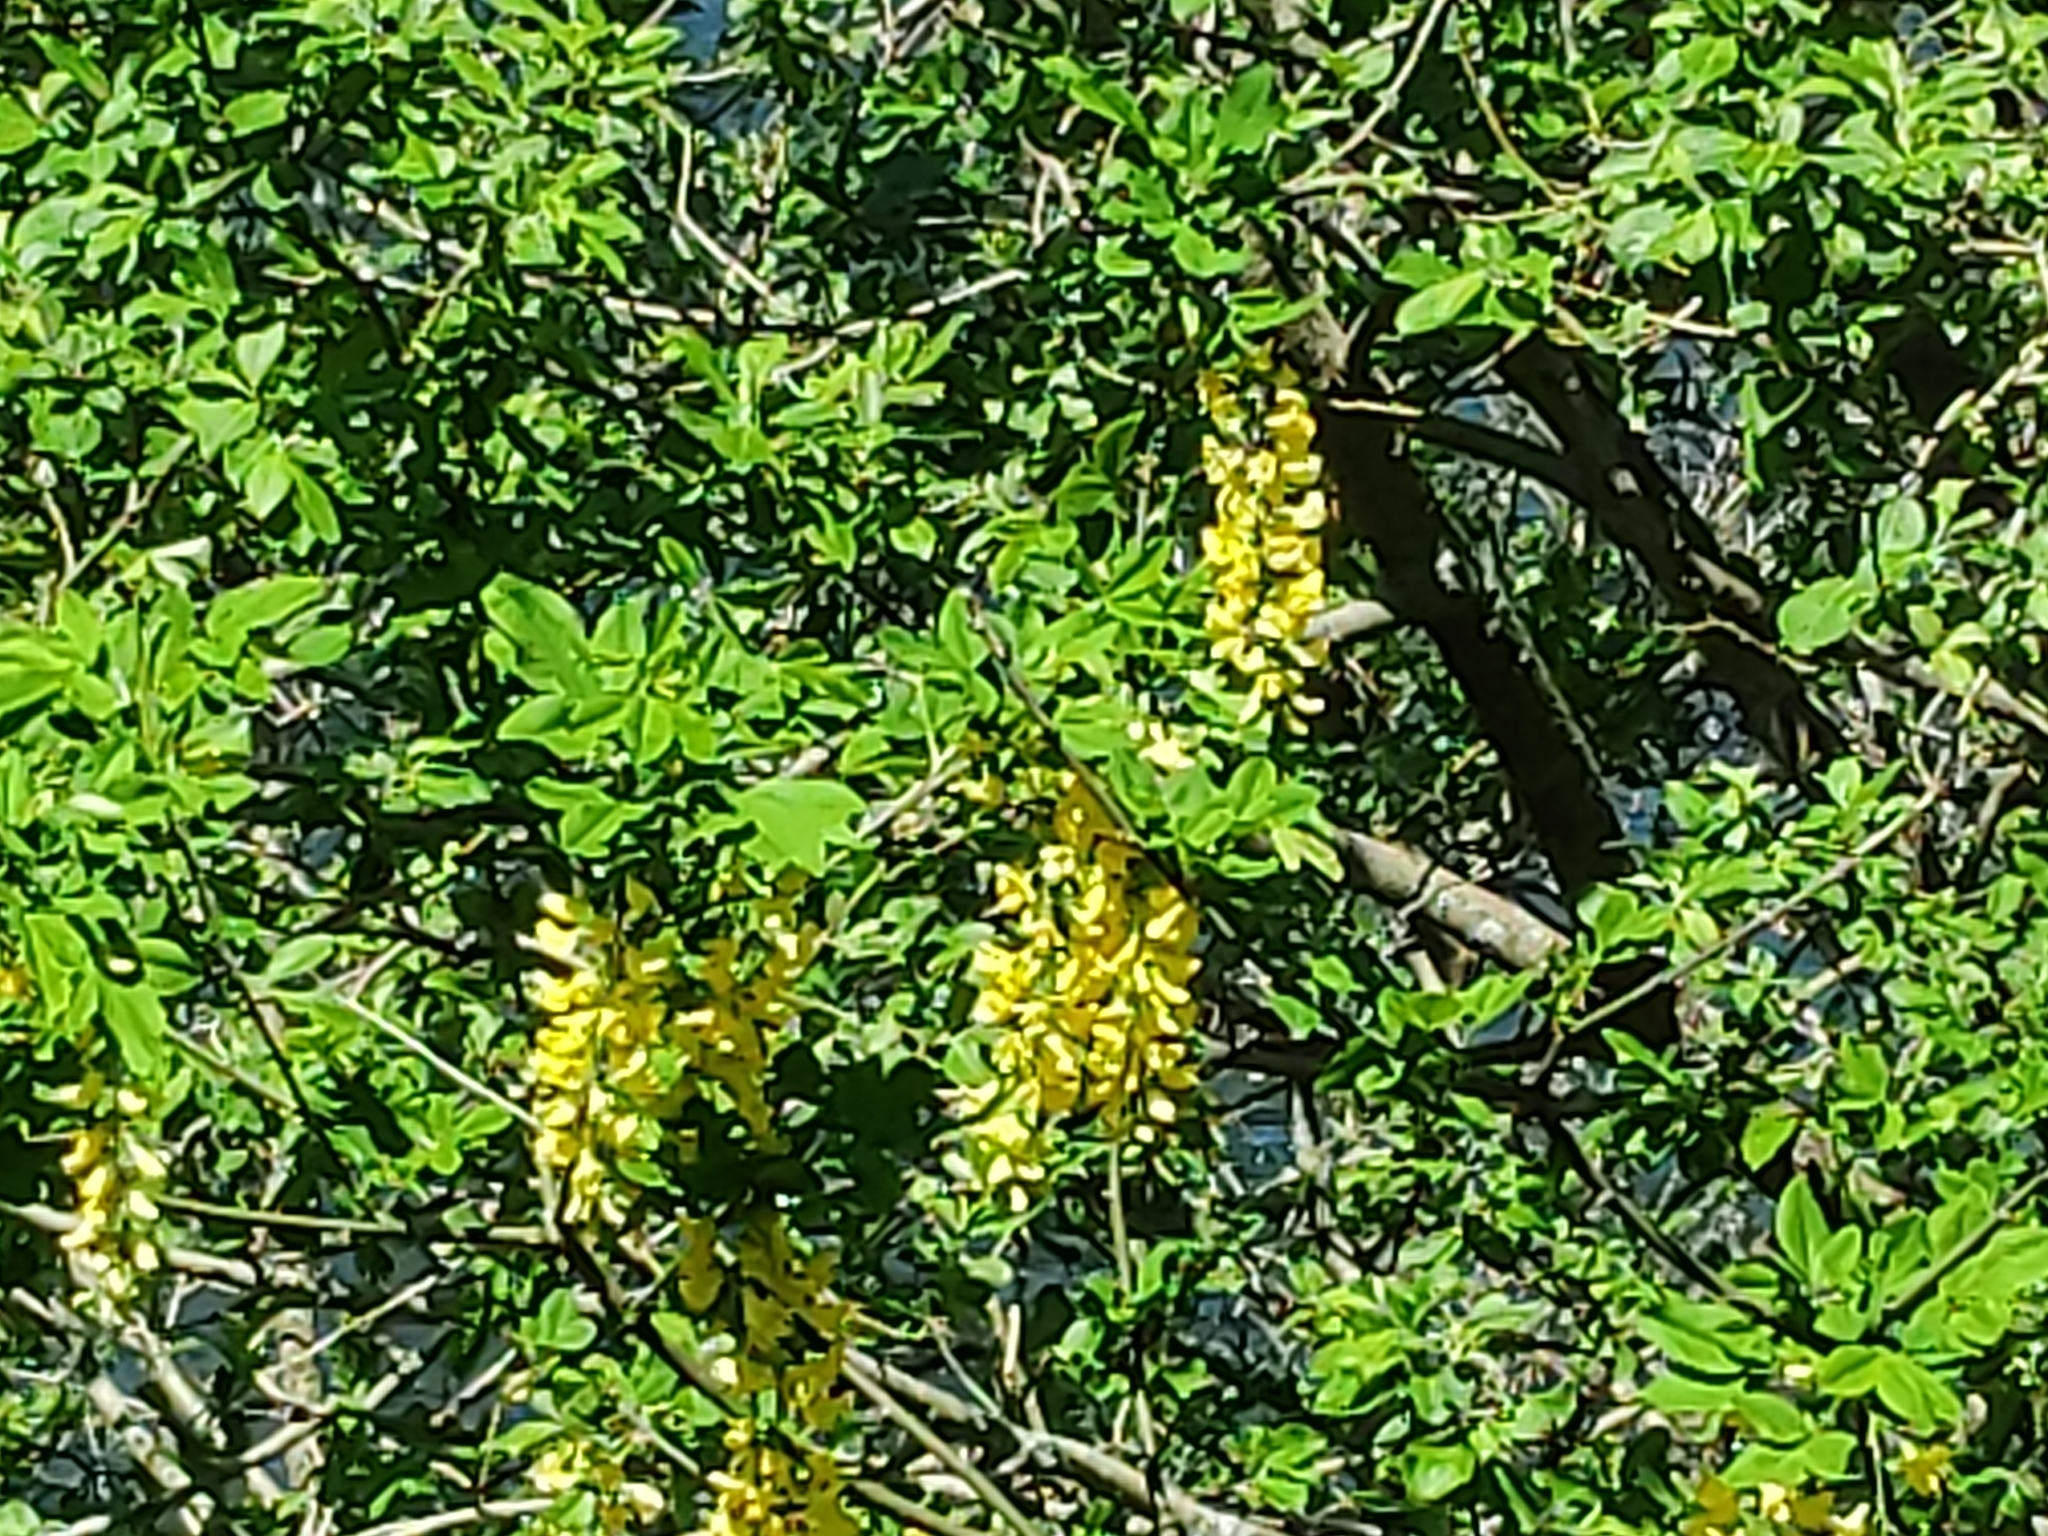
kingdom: Plantae
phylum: Tracheophyta
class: Magnoliopsida
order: Fabales
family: Fabaceae
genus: Laburnum
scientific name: Laburnum anagyroides
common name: Laburnum
